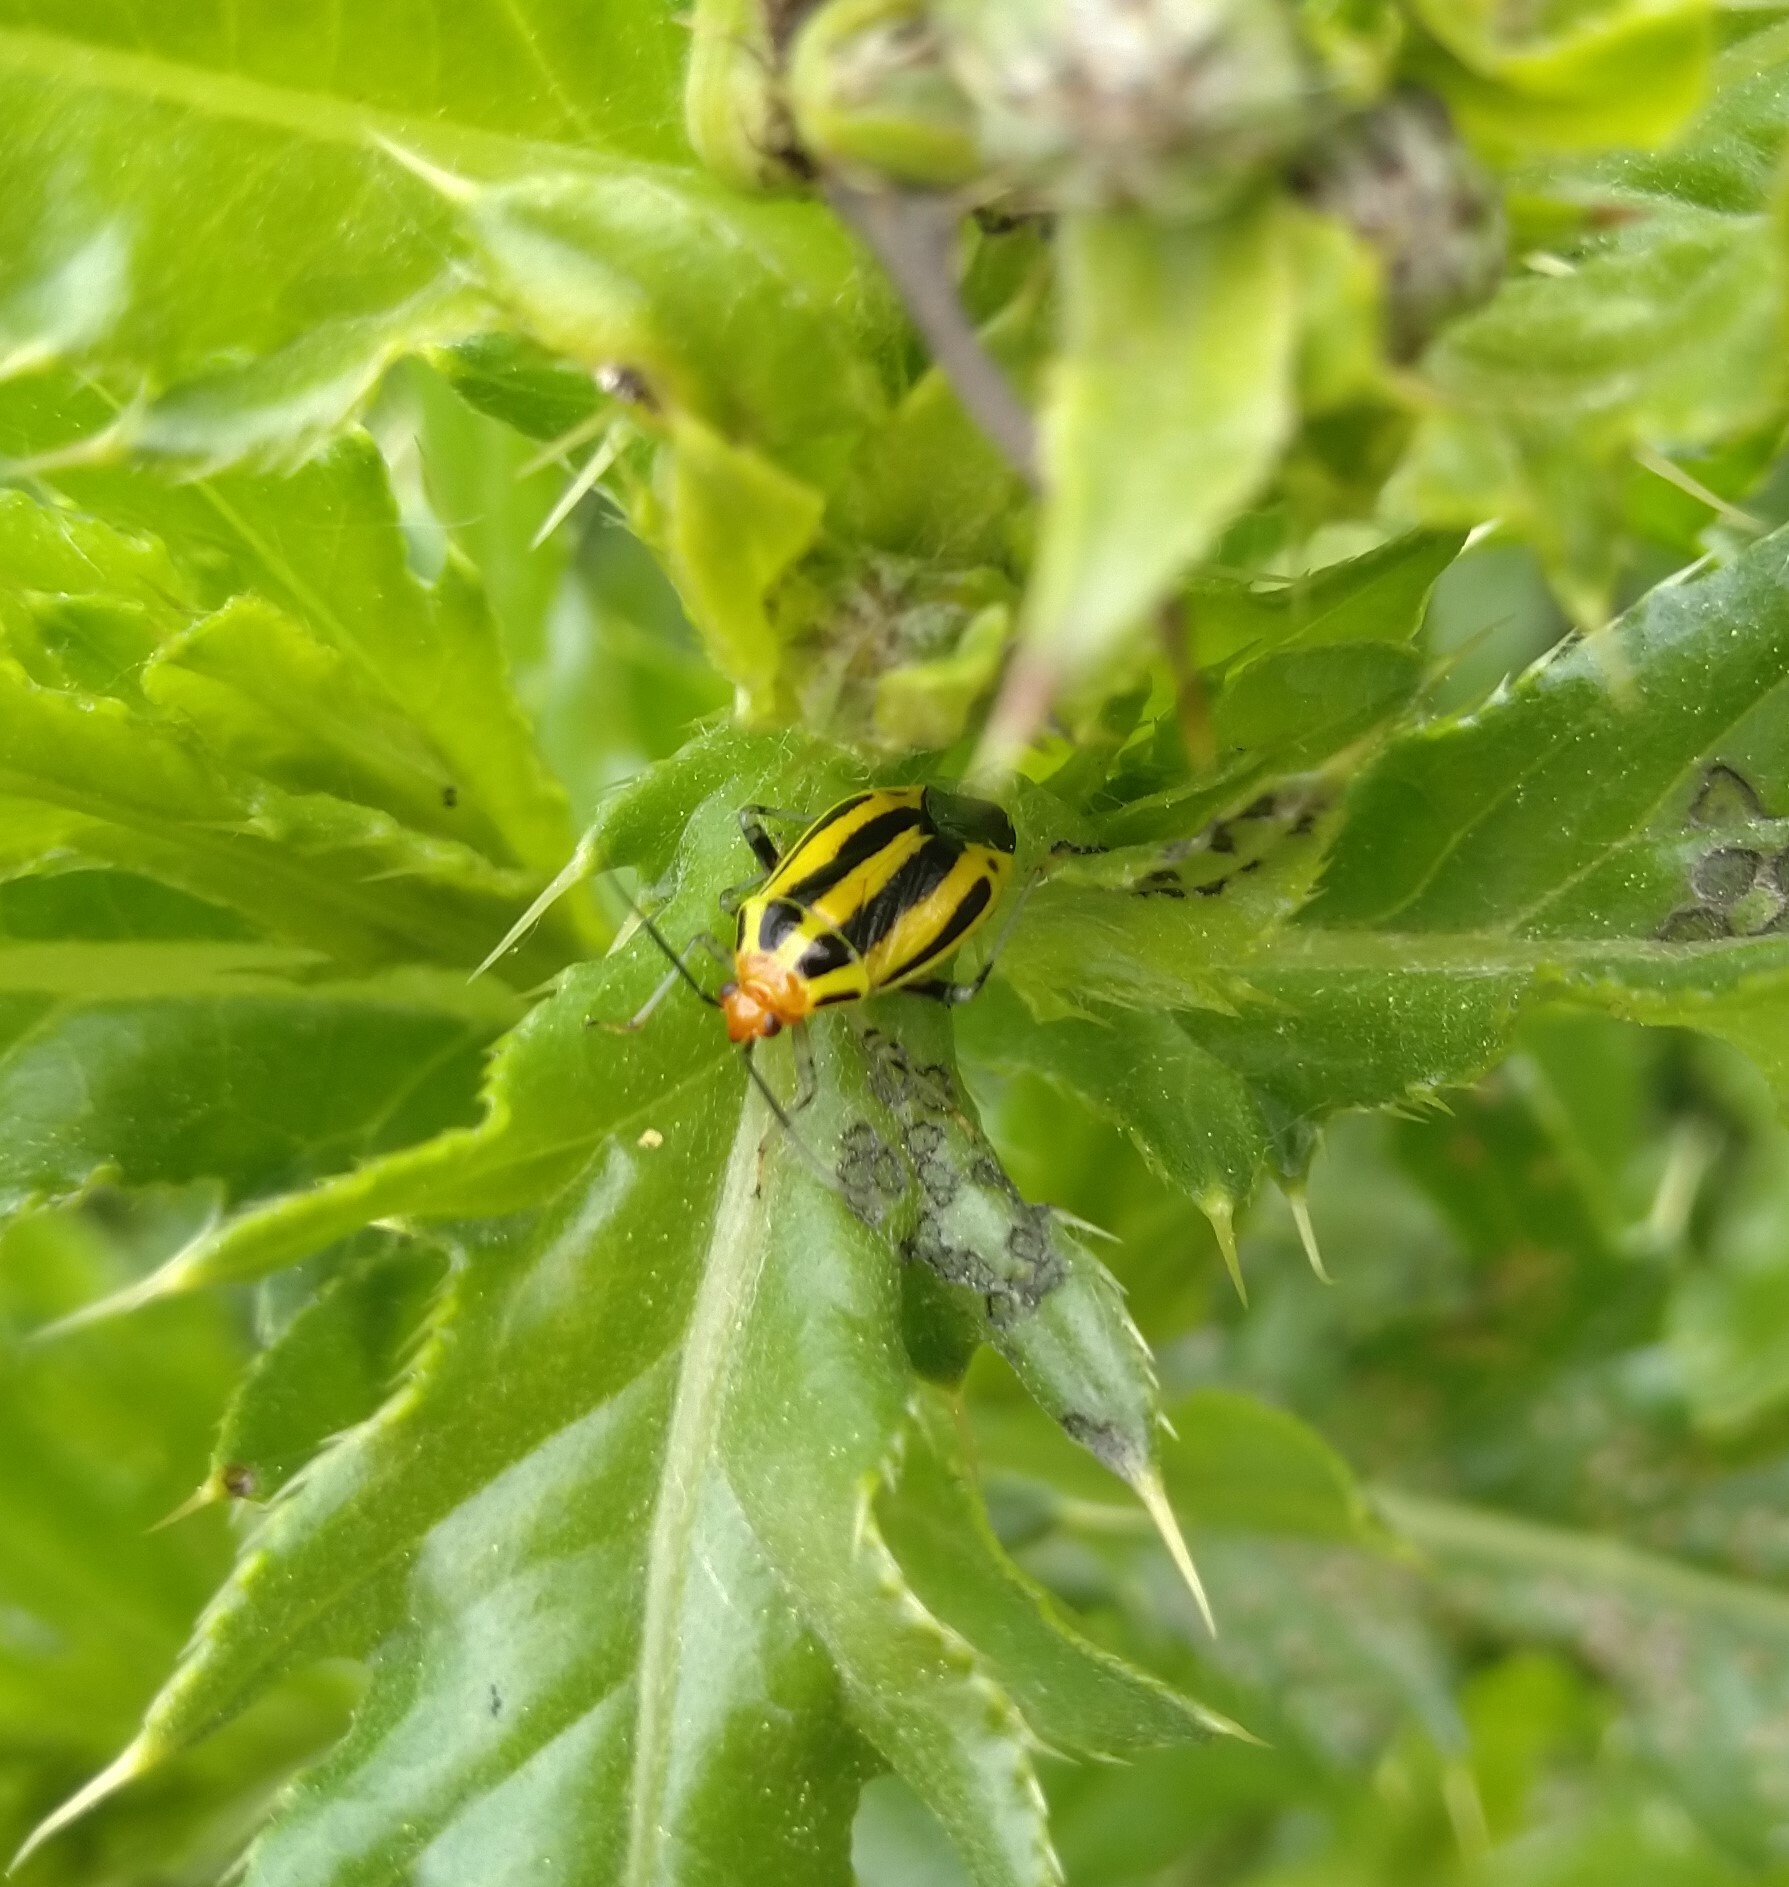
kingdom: Animalia
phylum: Arthropoda
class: Insecta
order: Hemiptera
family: Miridae
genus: Poecilocapsus
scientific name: Poecilocapsus lineatus
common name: Four-lined plant bug
